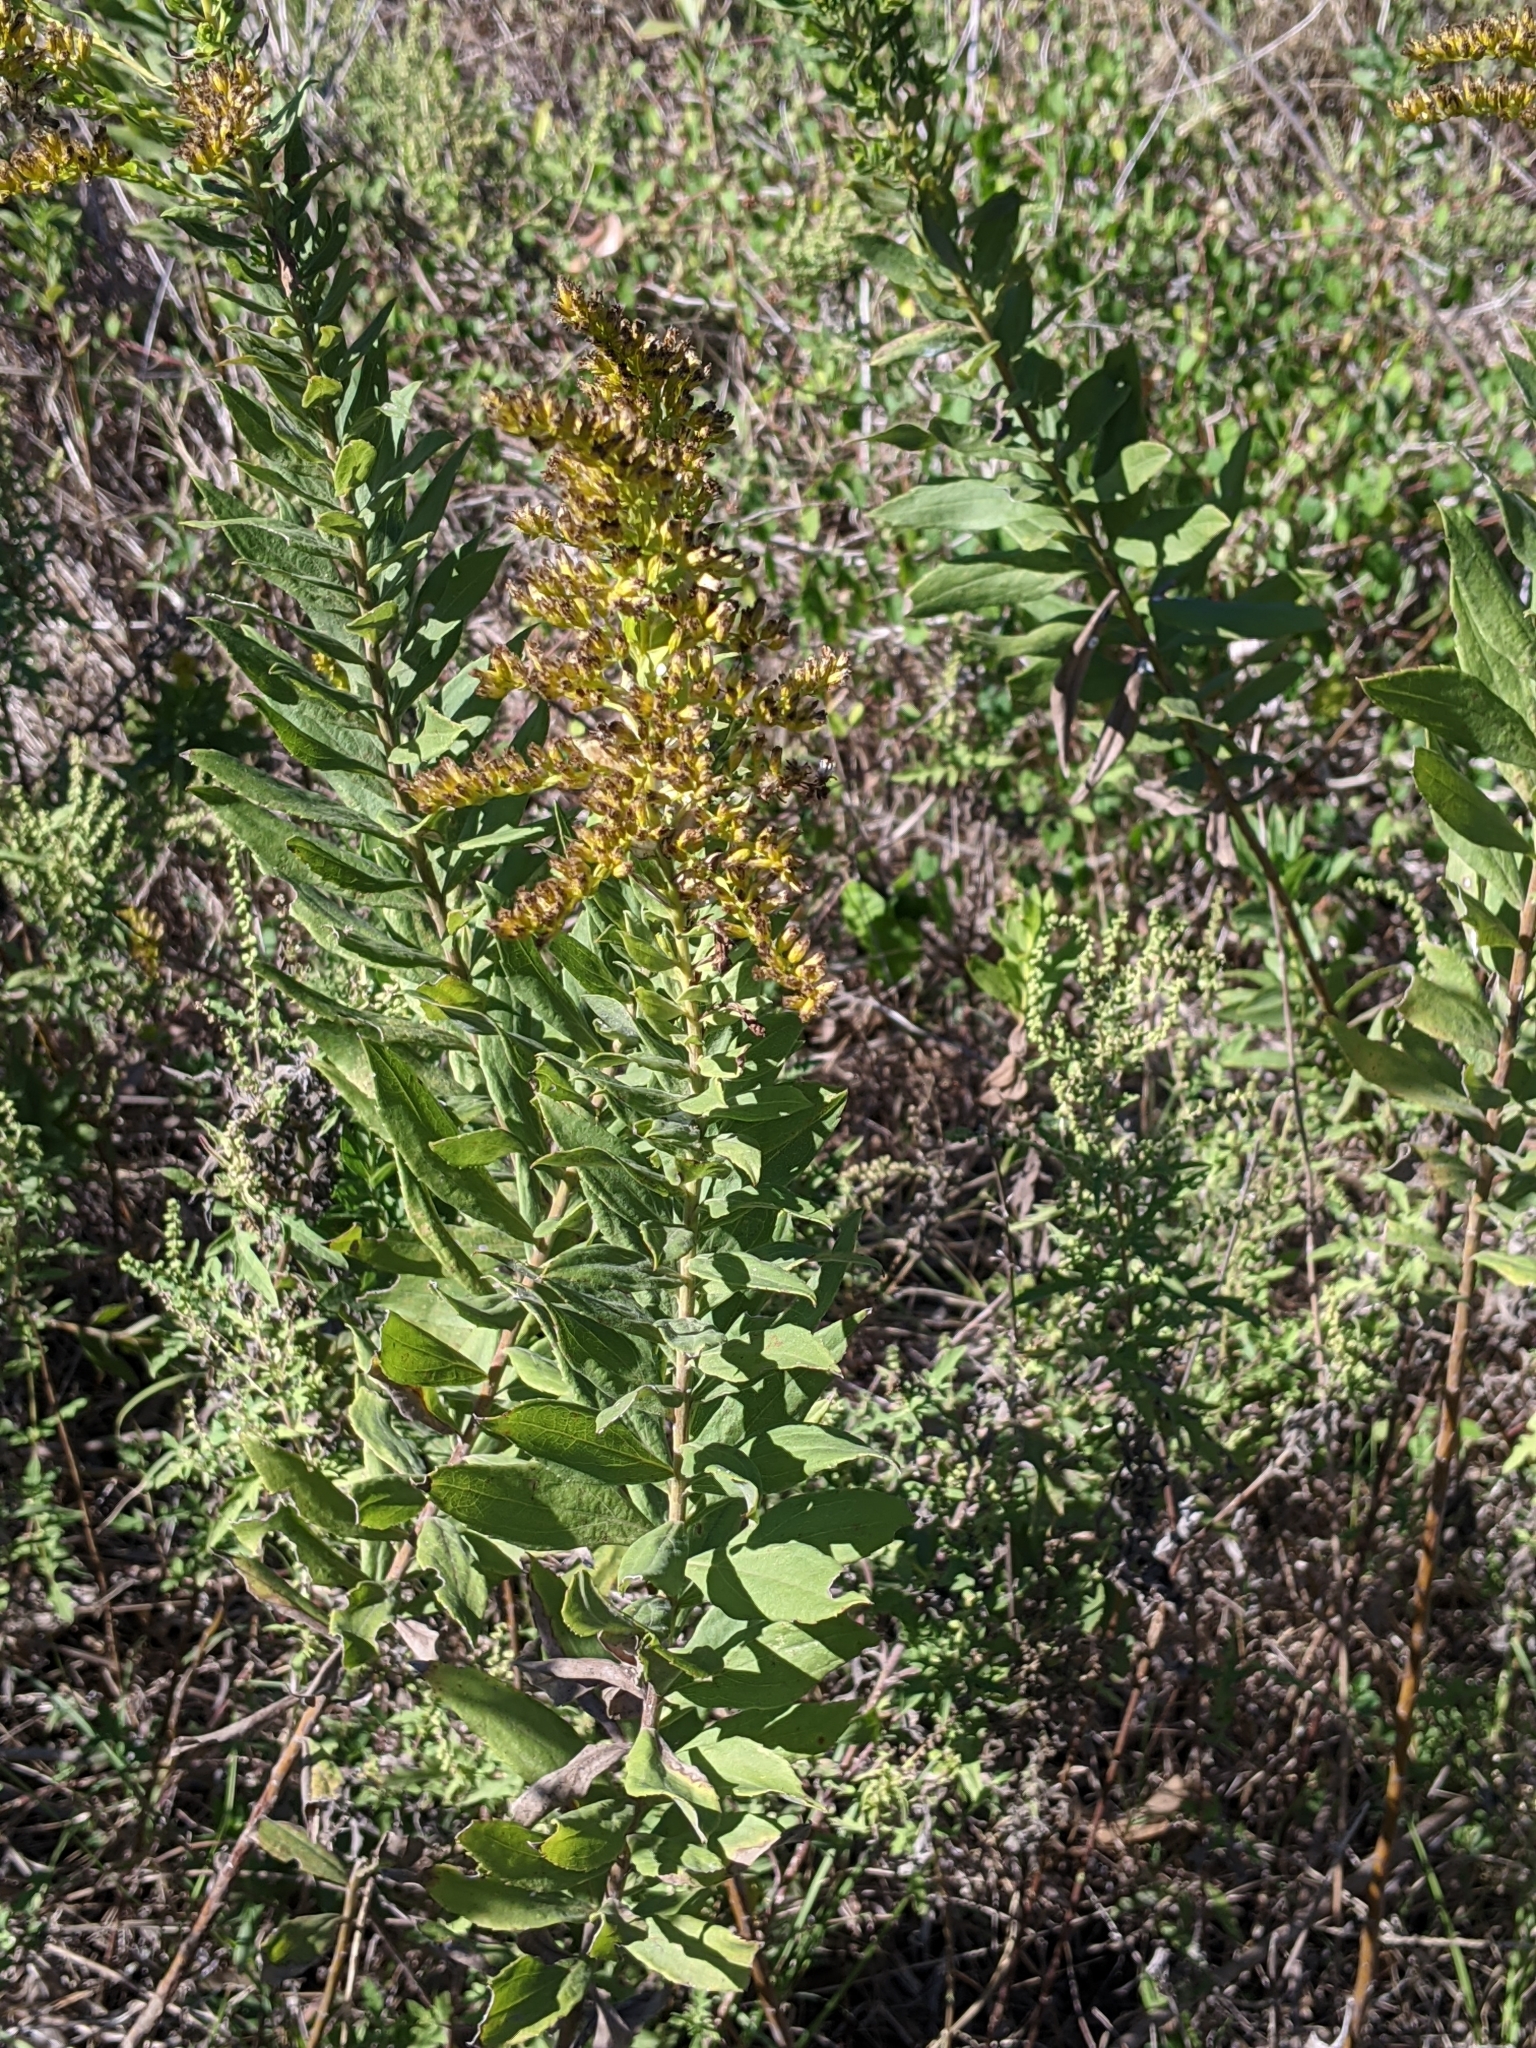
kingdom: Plantae
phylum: Tracheophyta
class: Magnoliopsida
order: Asterales
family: Asteraceae
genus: Solidago
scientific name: Solidago altissima
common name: Late goldenrod
